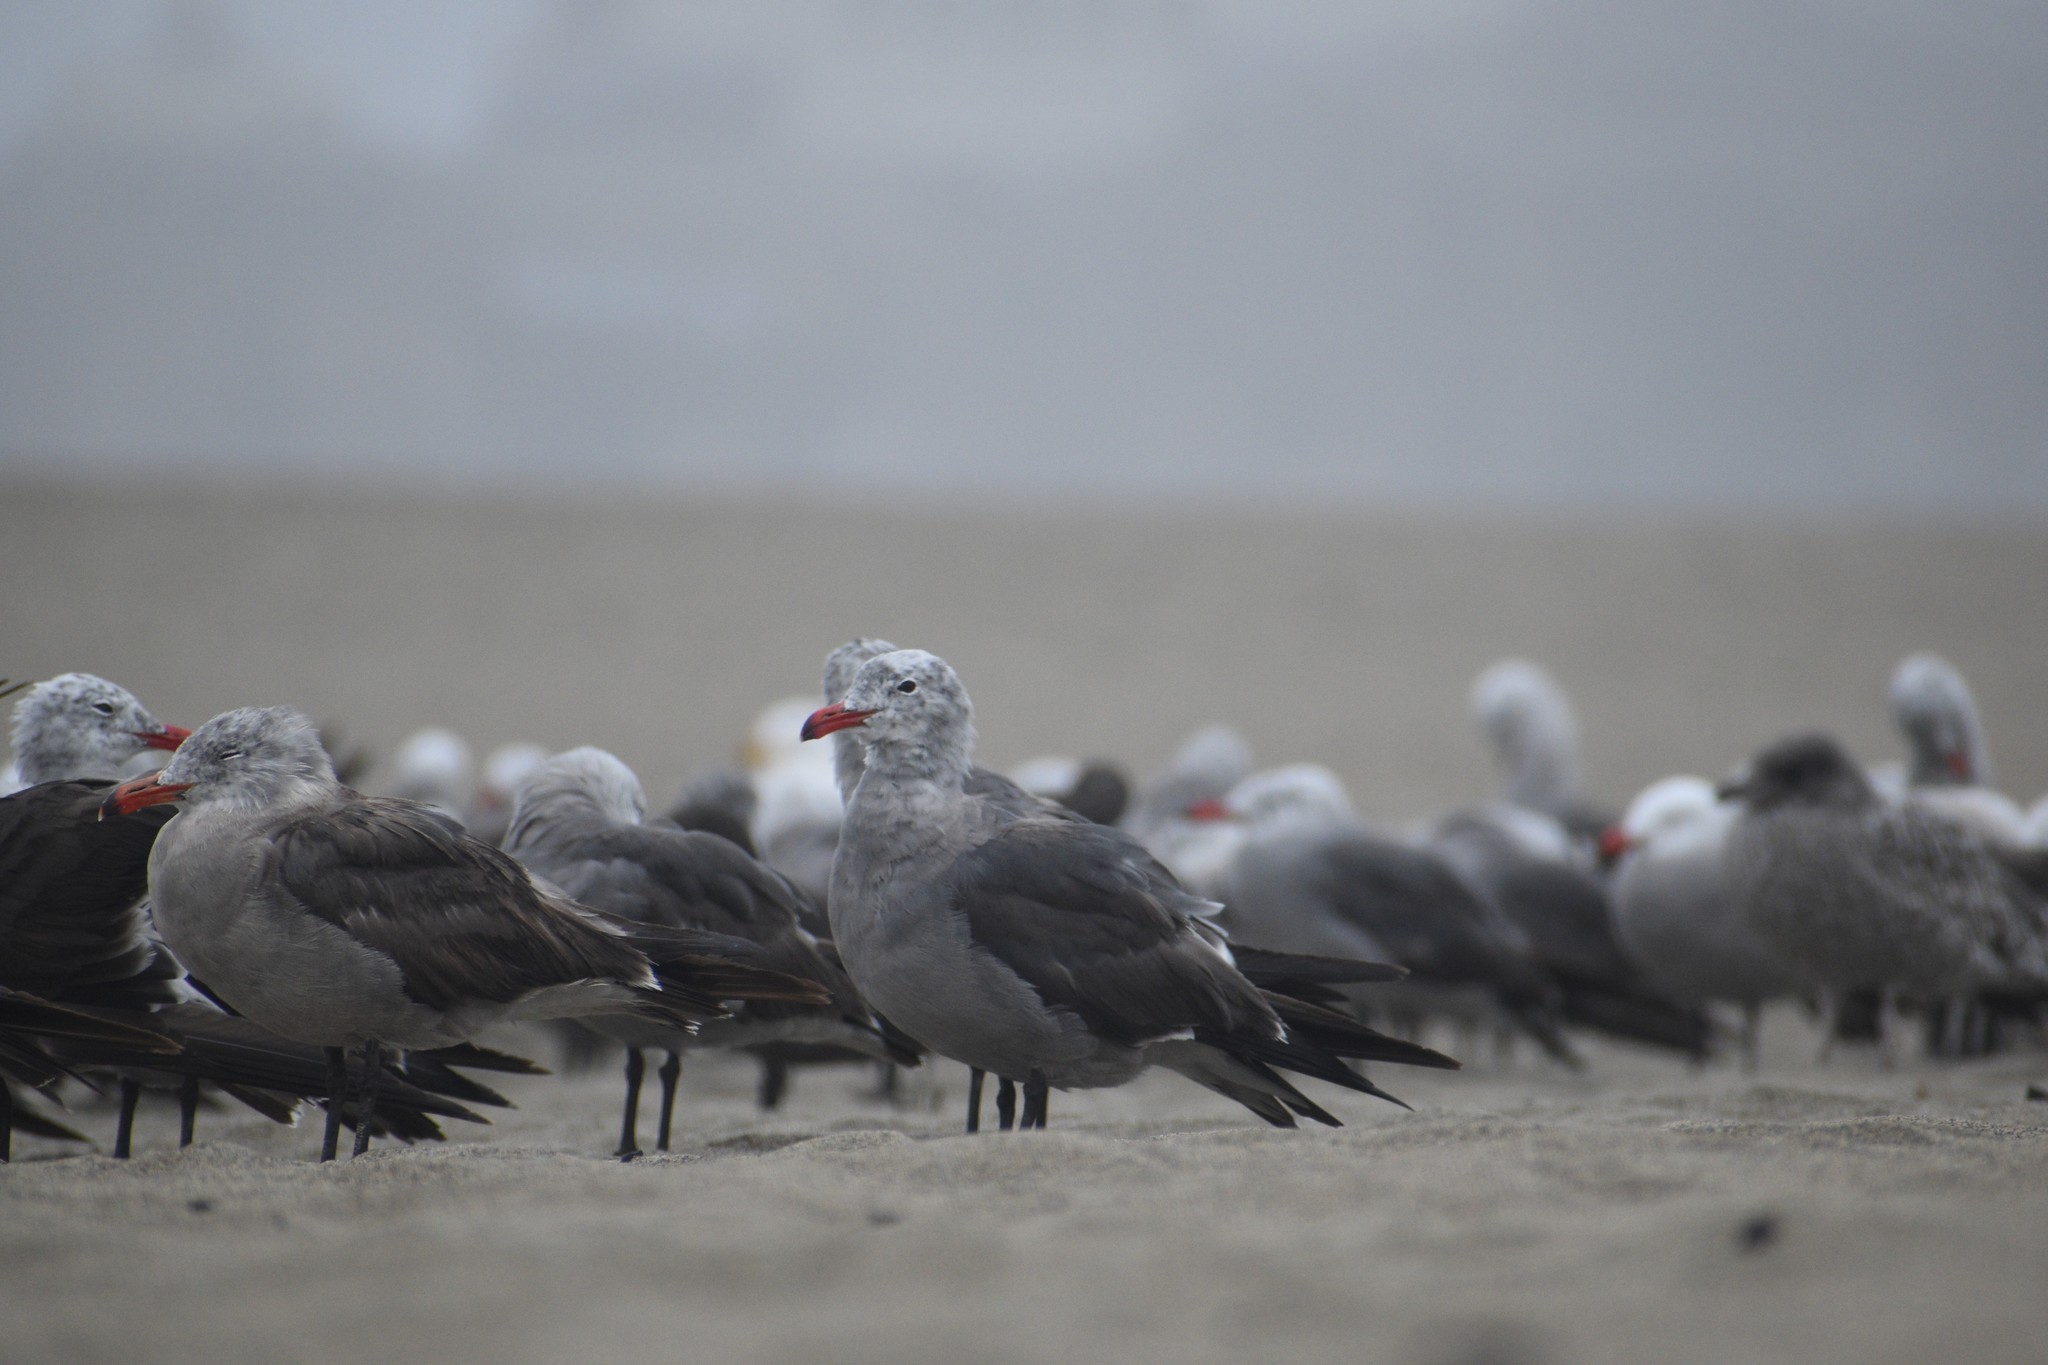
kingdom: Animalia
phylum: Chordata
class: Aves
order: Charadriiformes
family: Laridae
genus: Larus
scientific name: Larus heermanni
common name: Heermann's gull
